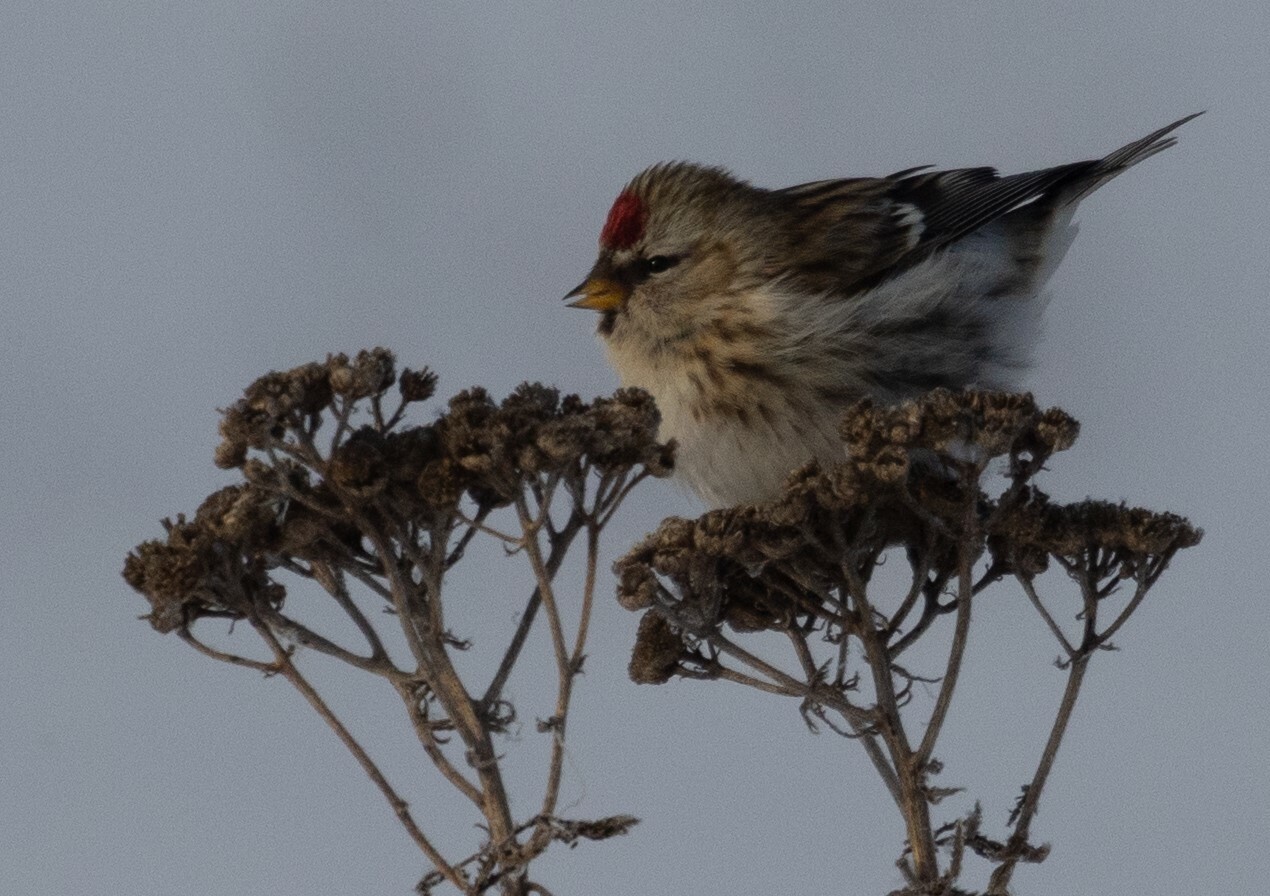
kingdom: Animalia
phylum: Chordata
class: Aves
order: Passeriformes
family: Fringillidae
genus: Acanthis
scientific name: Acanthis flammea
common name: Common redpoll
